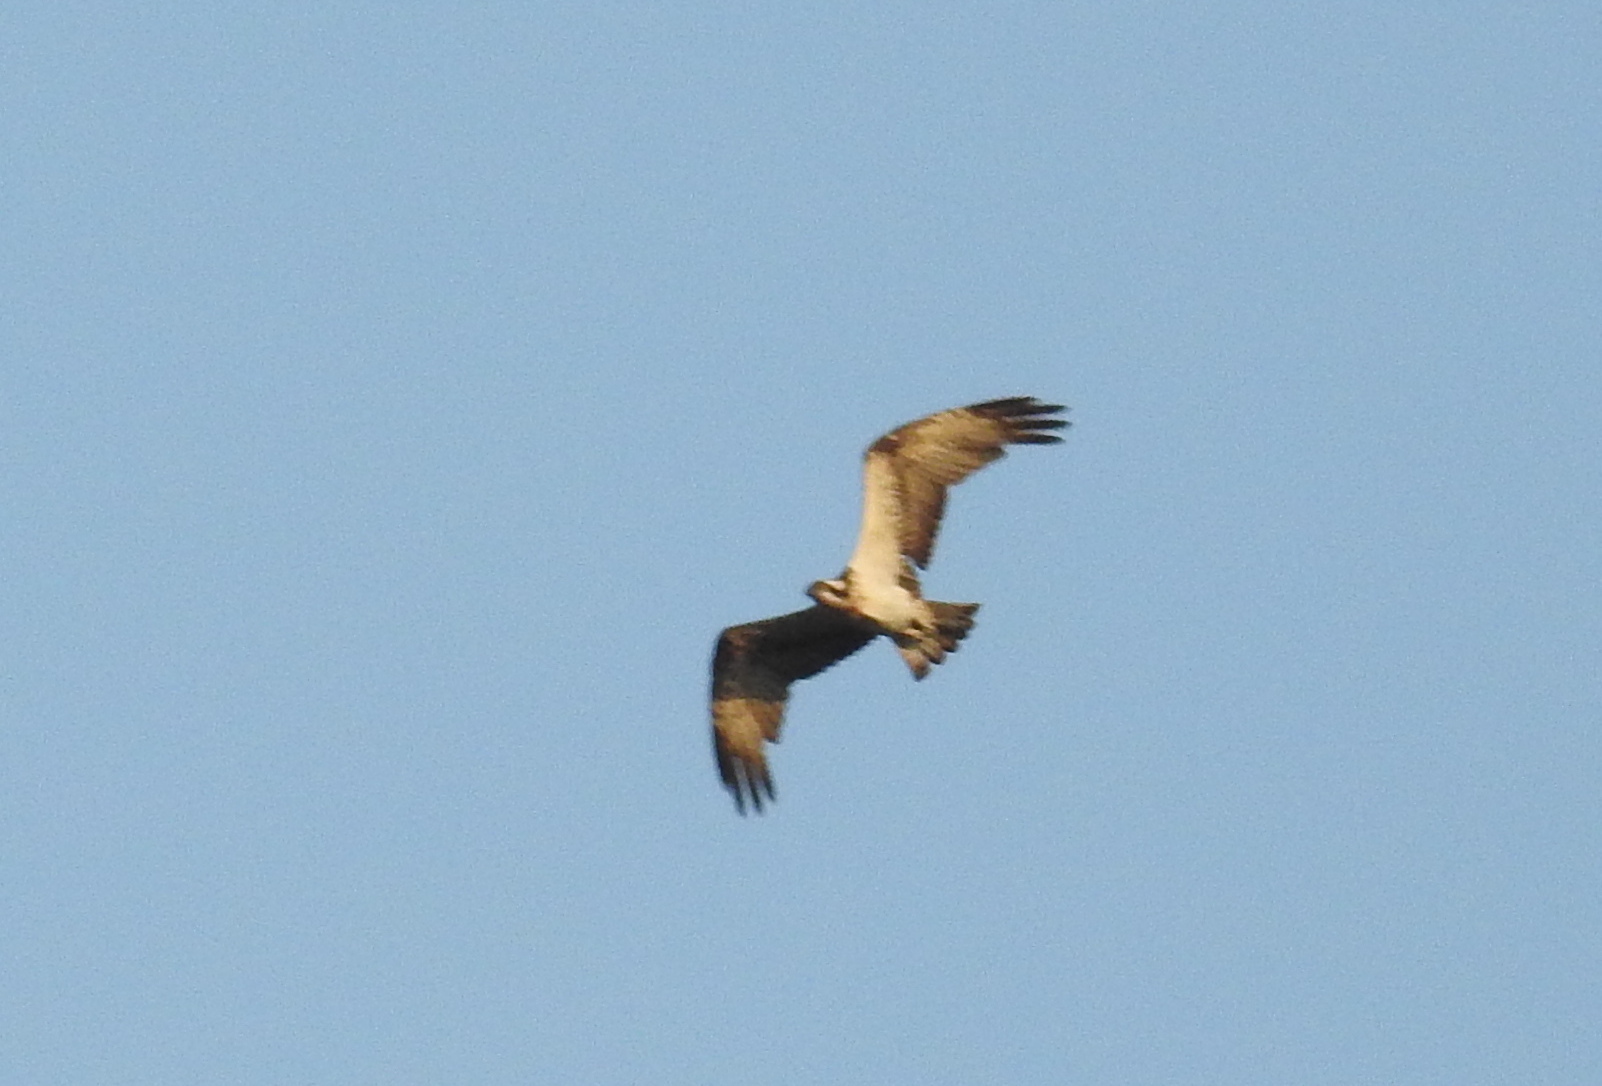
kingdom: Animalia
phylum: Chordata
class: Aves
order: Accipitriformes
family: Pandionidae
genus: Pandion
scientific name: Pandion haliaetus
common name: Osprey
